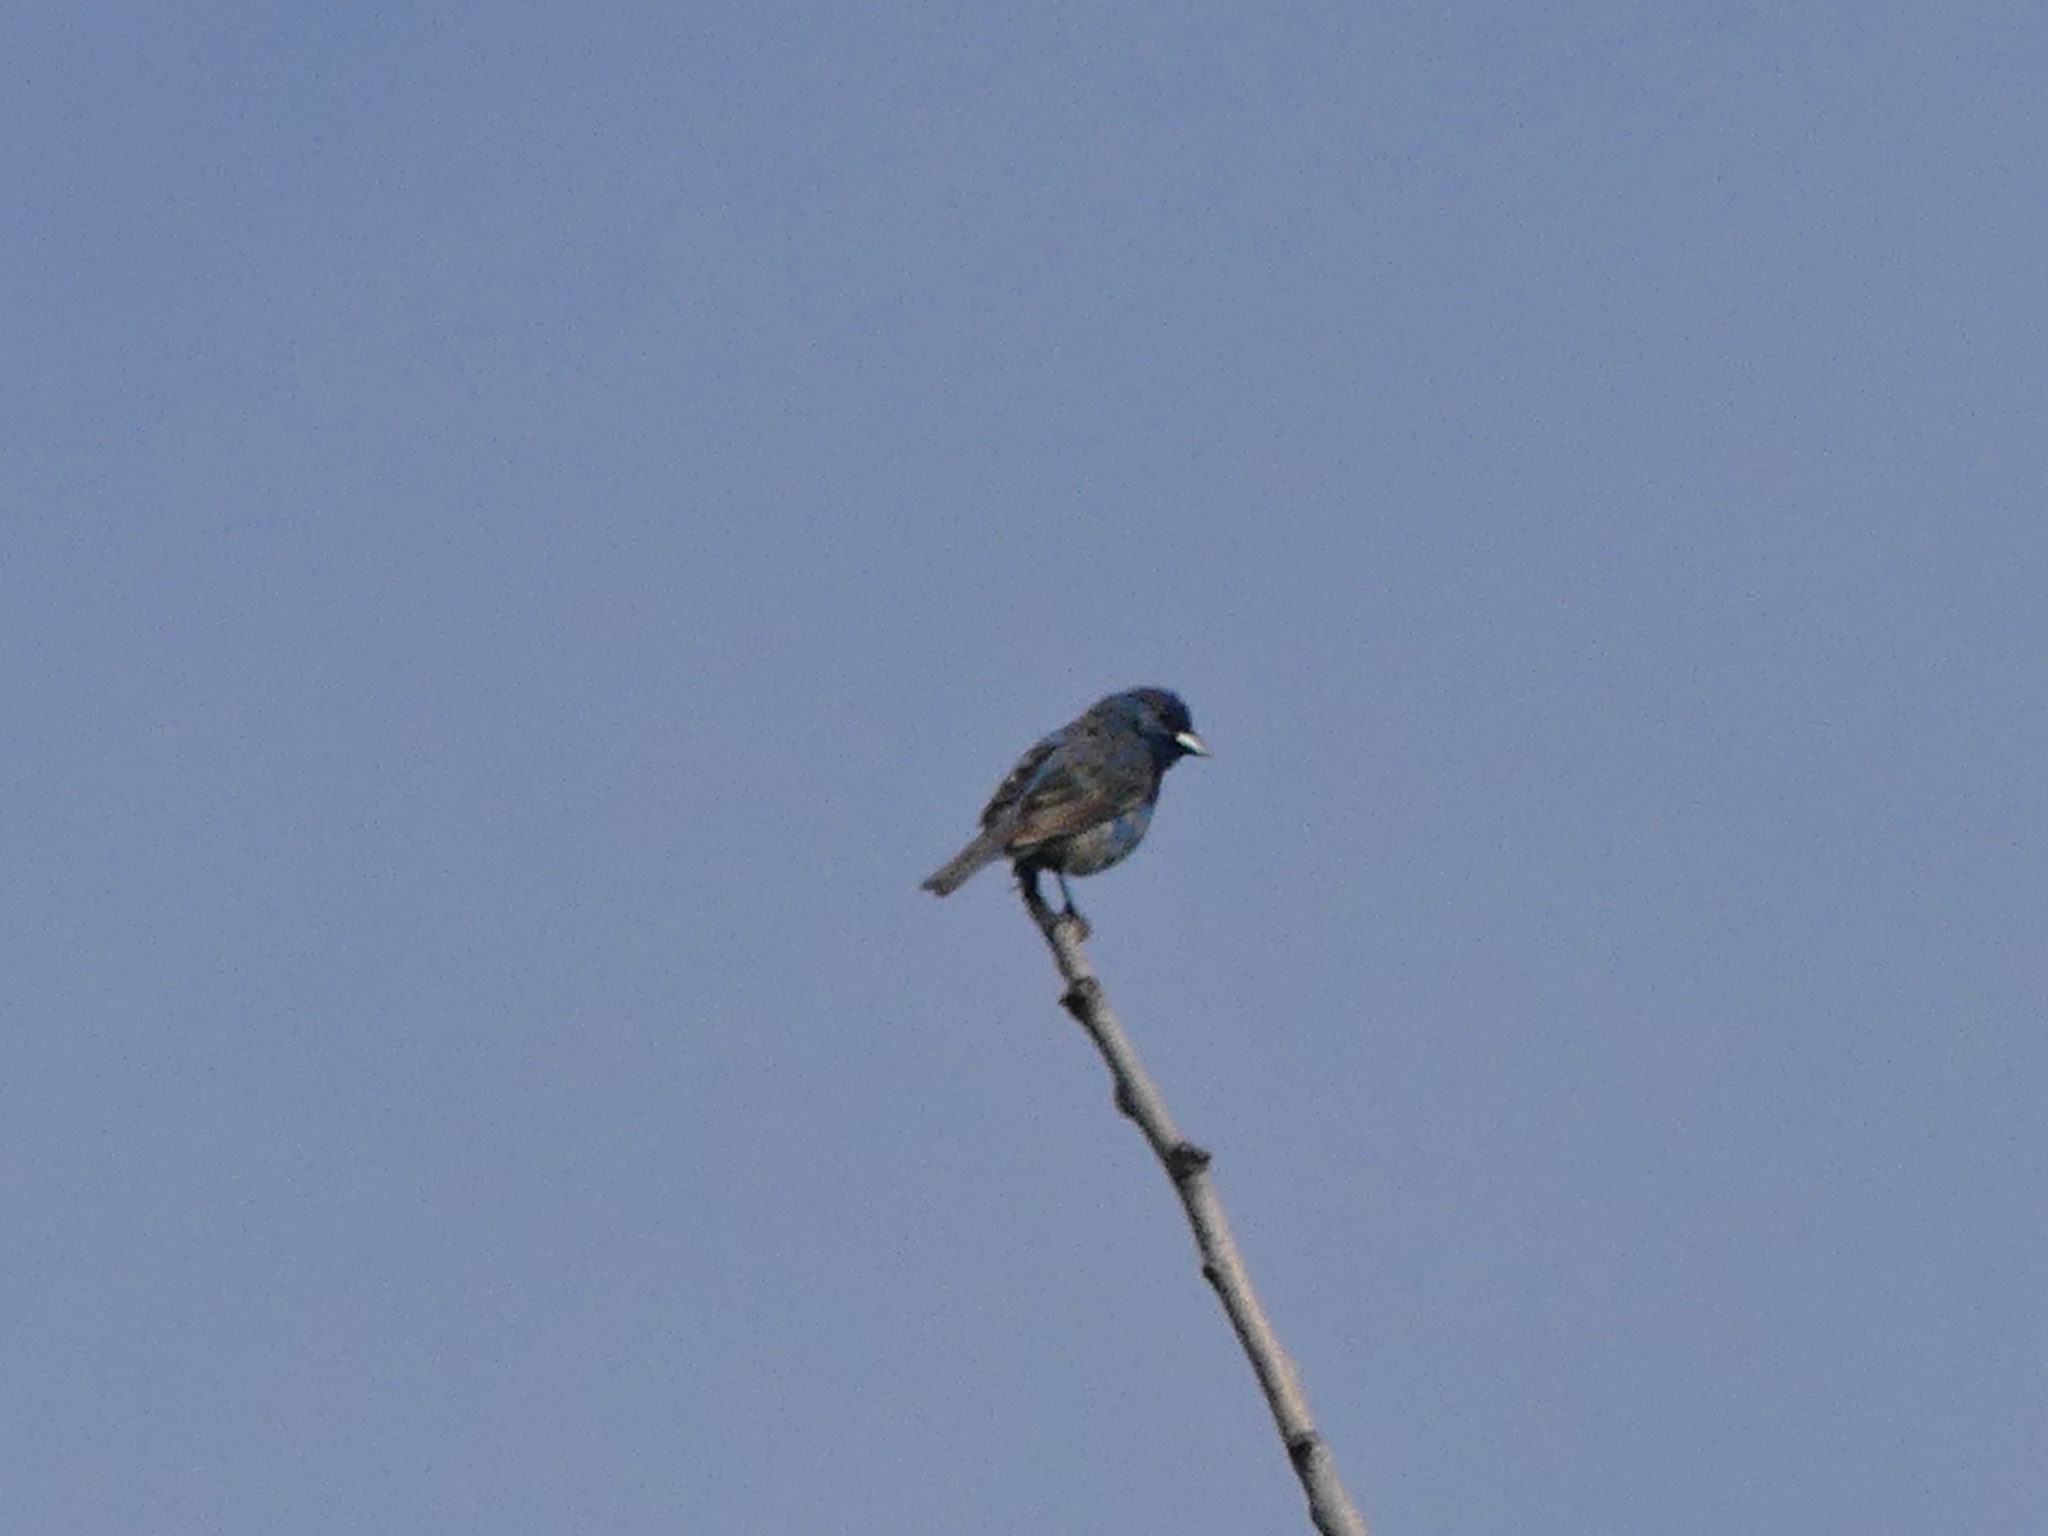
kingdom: Animalia
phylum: Chordata
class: Aves
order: Passeriformes
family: Cardinalidae
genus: Passerina
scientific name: Passerina cyanea
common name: Indigo bunting
